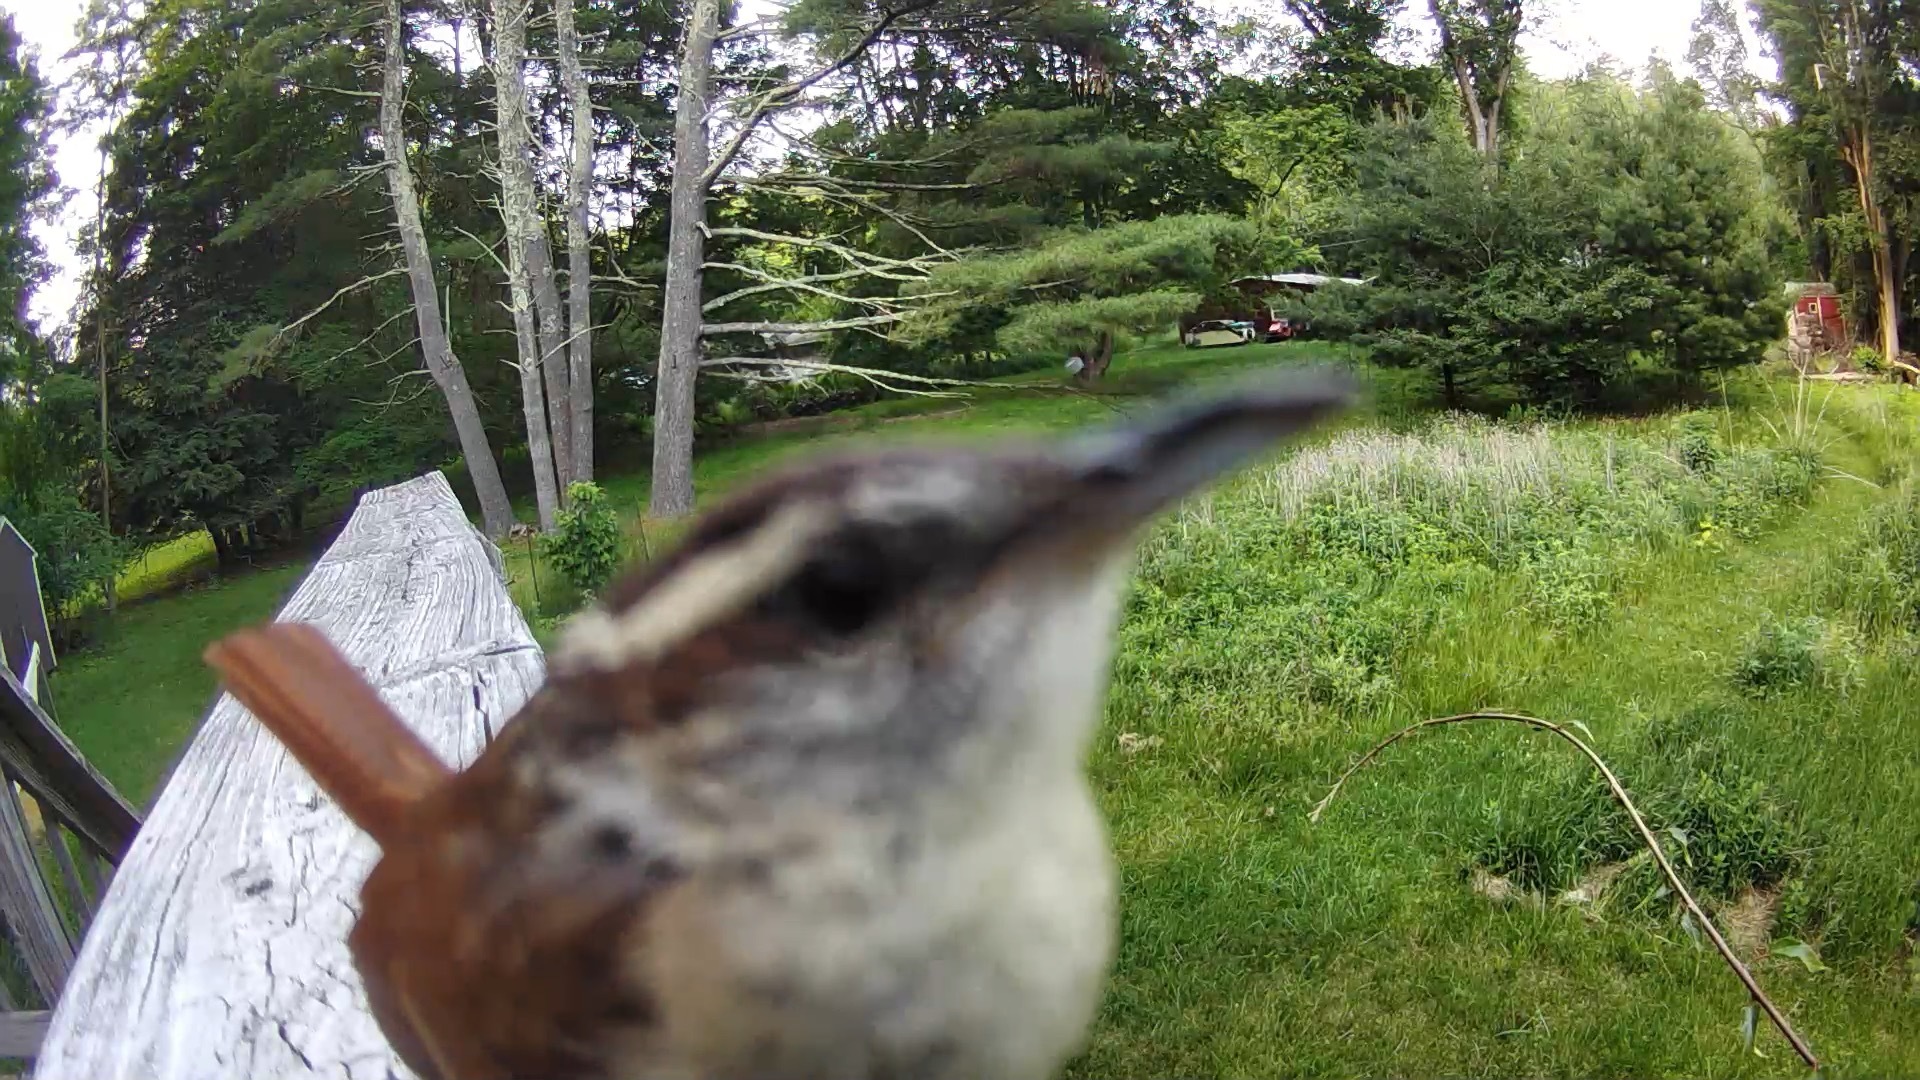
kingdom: Animalia
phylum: Chordata
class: Aves
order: Passeriformes
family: Troglodytidae
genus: Thryothorus
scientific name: Thryothorus ludovicianus
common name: Carolina wren
